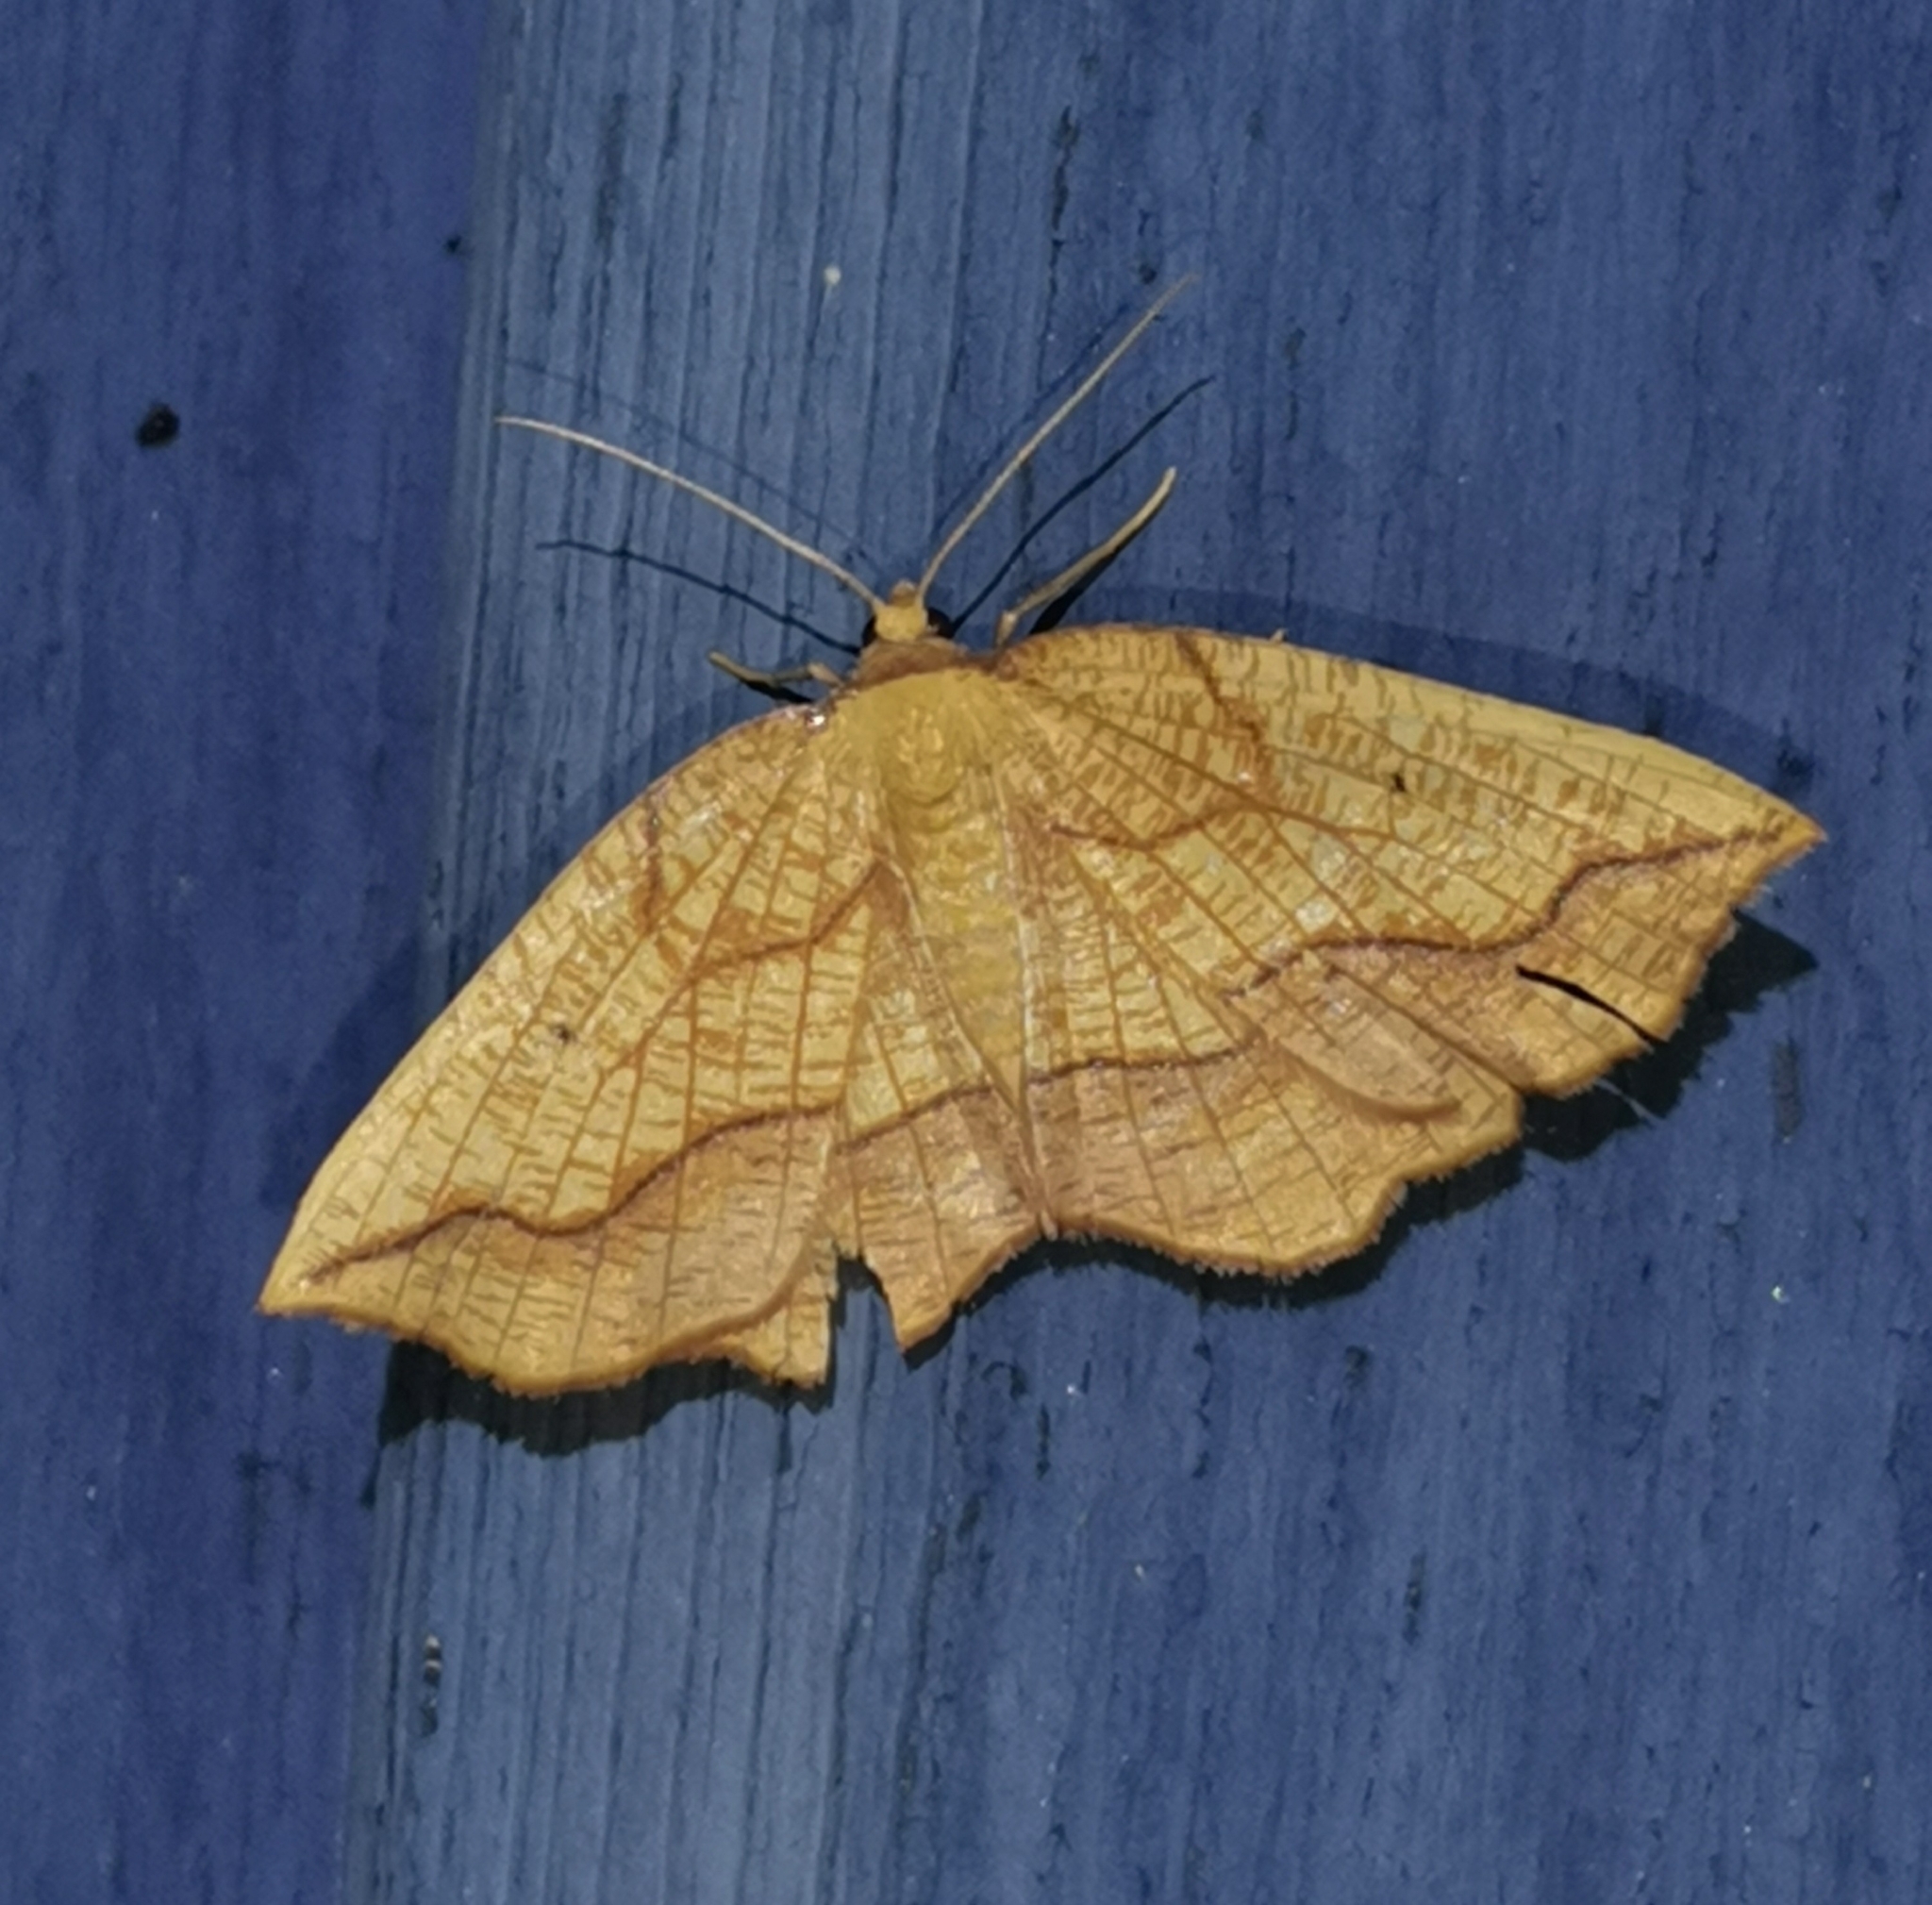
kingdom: Animalia
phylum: Arthropoda
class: Insecta
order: Lepidoptera
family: Geometridae
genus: Epione
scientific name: Epione repandaria
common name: Bordered beauty
